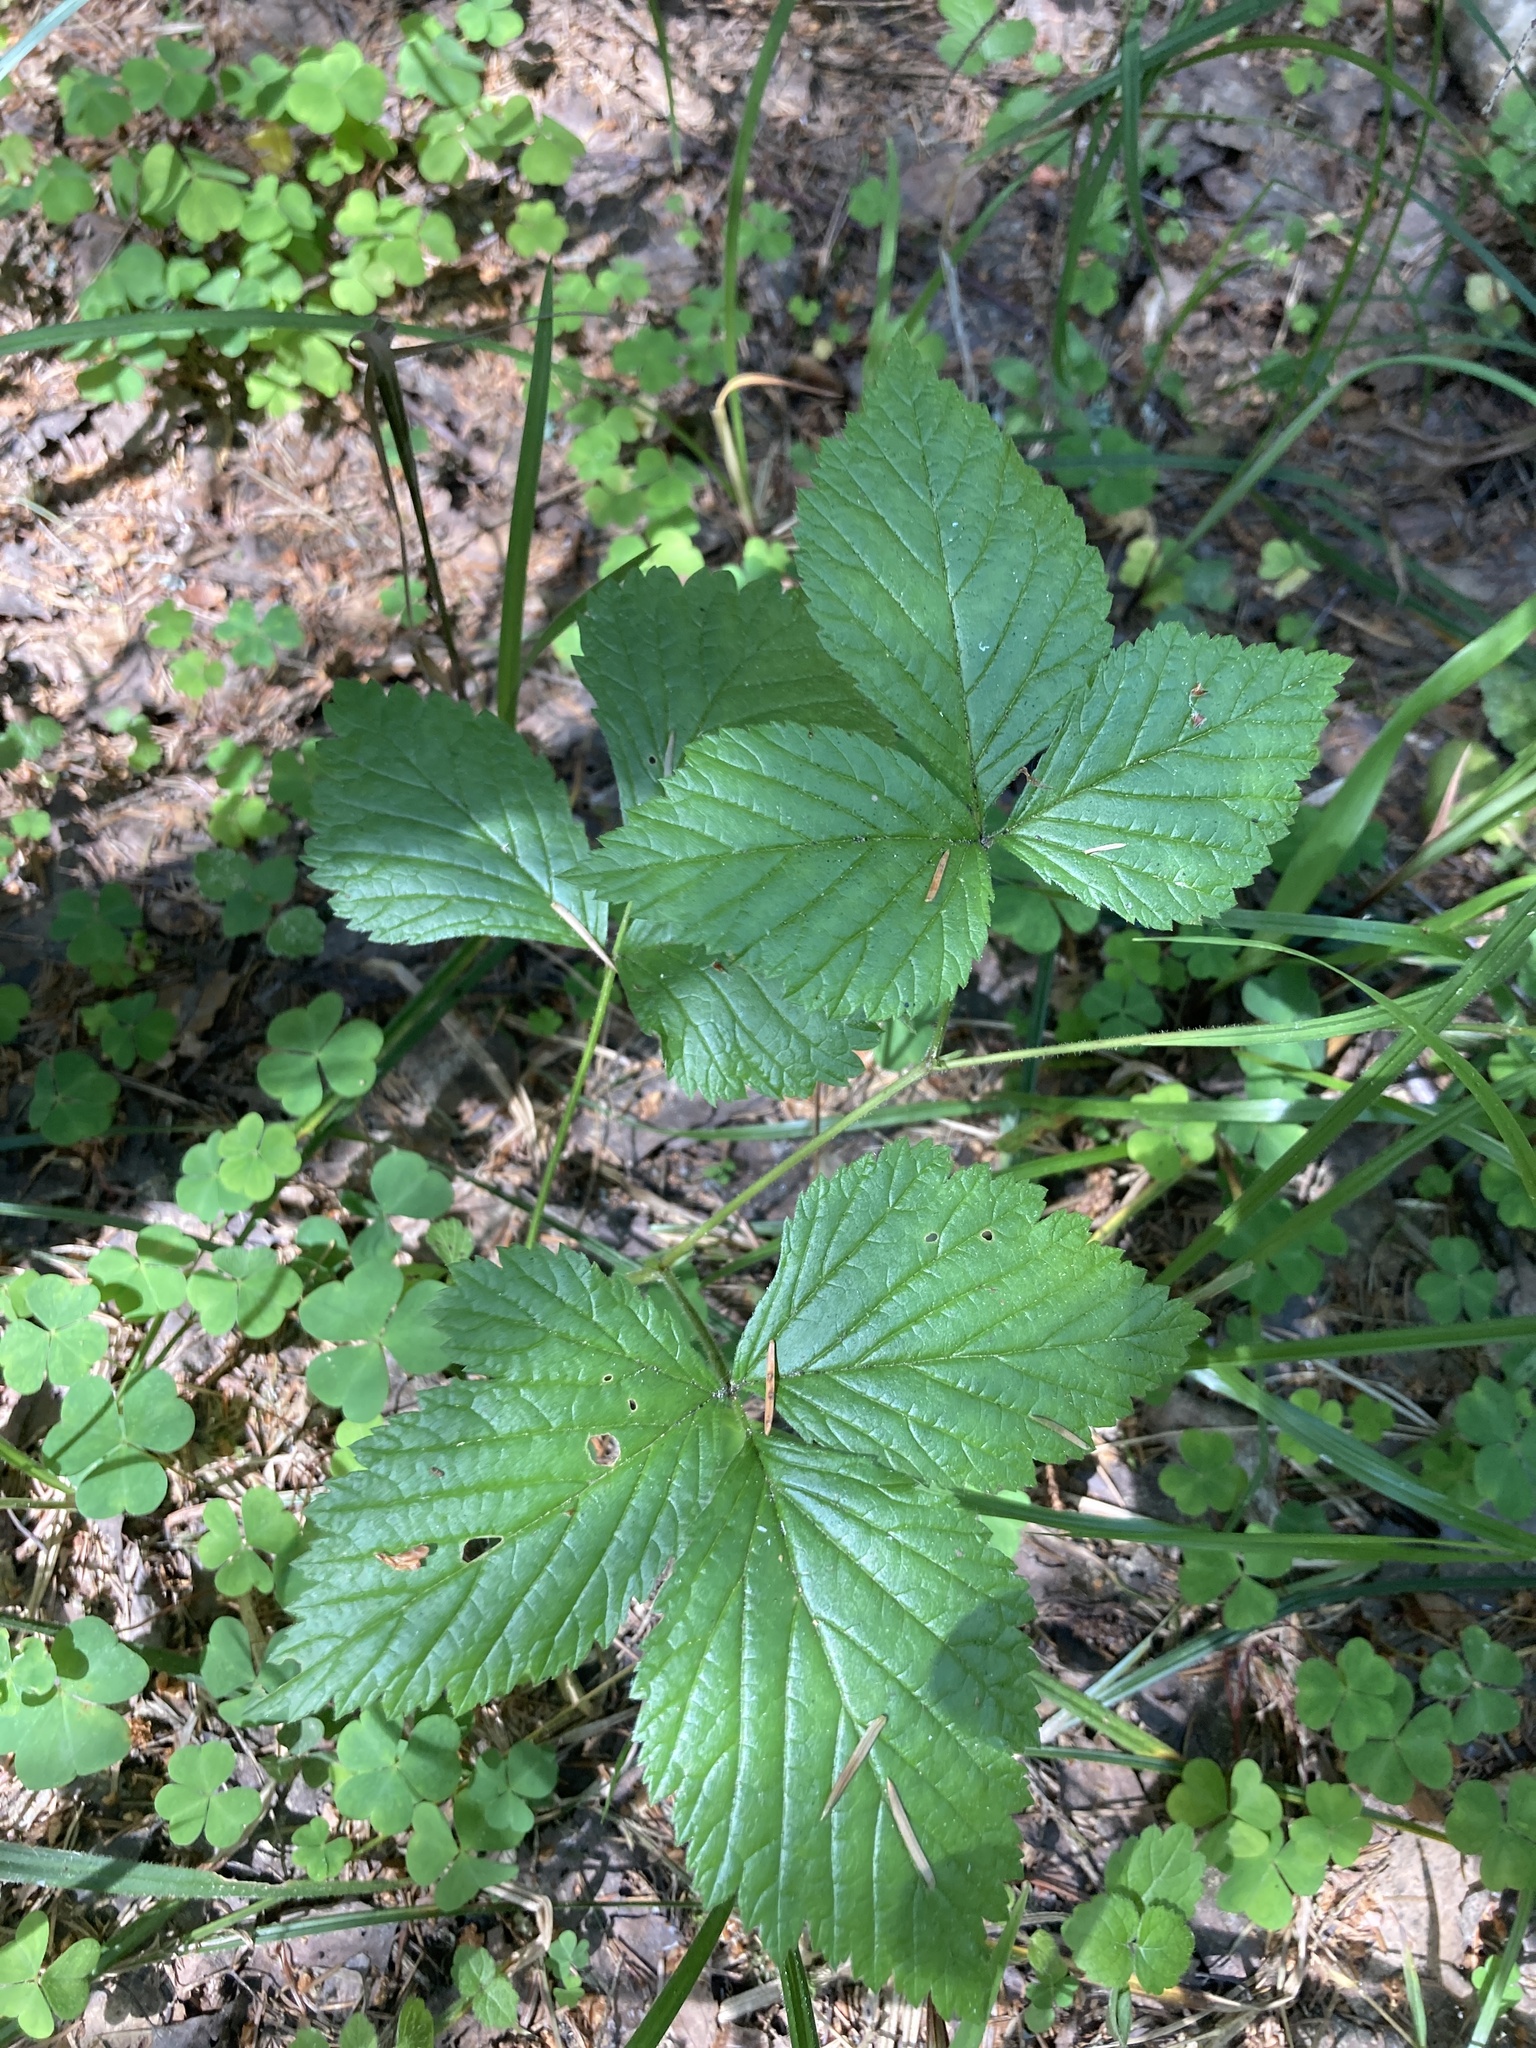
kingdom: Plantae
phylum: Tracheophyta
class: Magnoliopsida
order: Rosales
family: Rosaceae
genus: Rubus
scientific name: Rubus saxatilis
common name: Stone bramble
